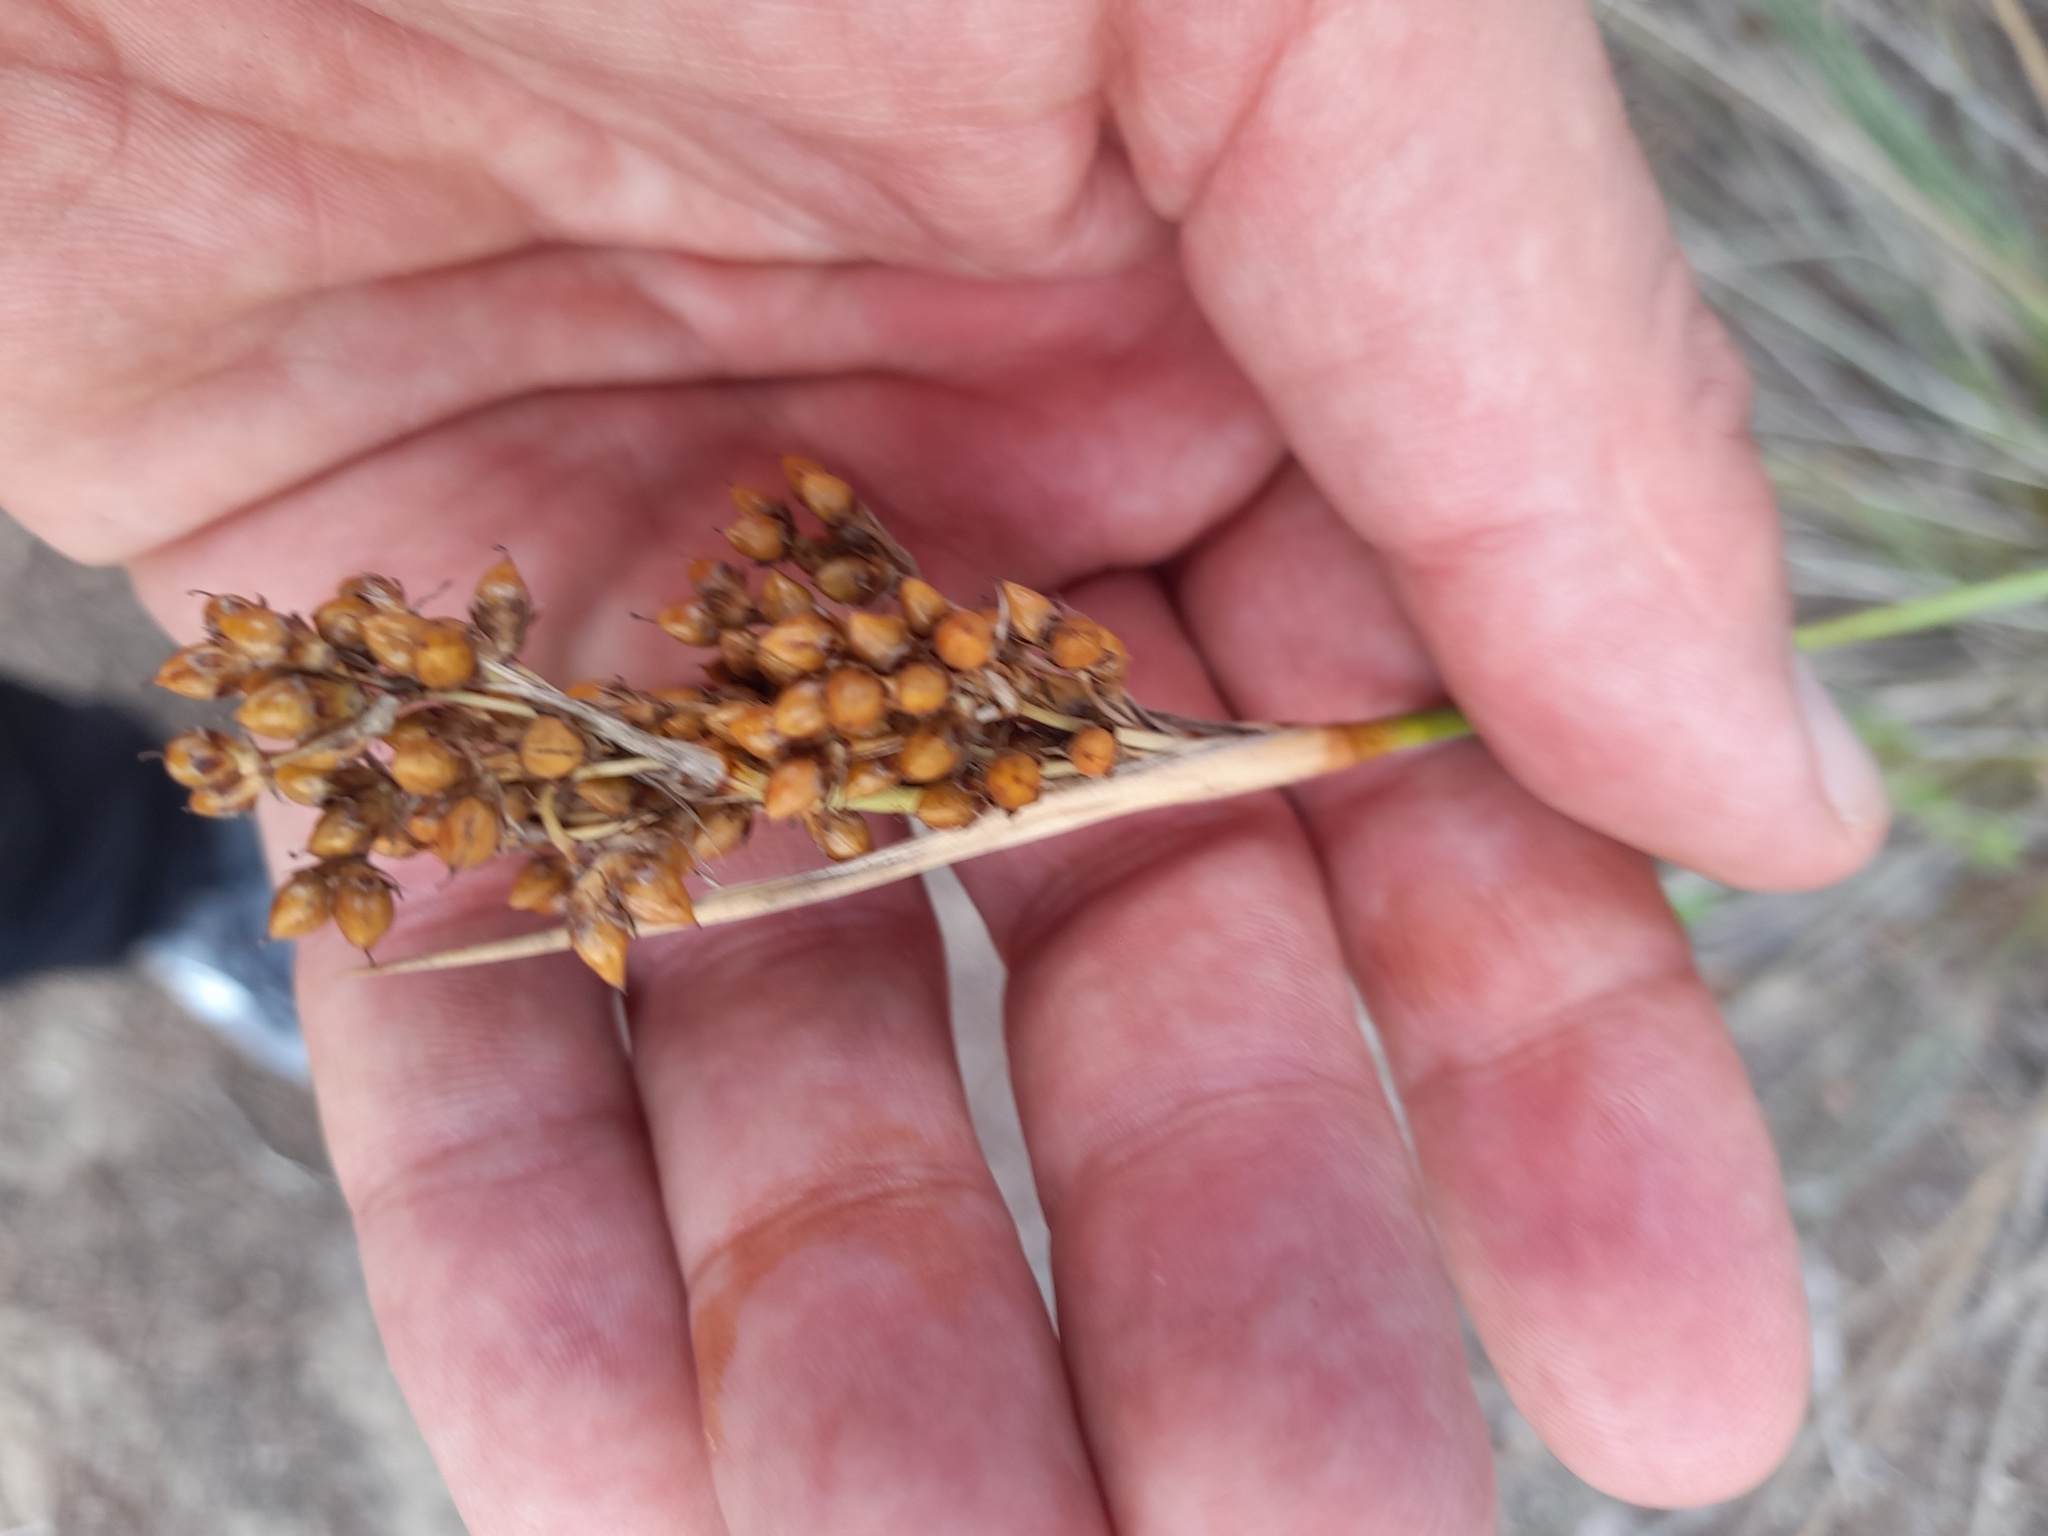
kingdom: Plantae
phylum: Tracheophyta
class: Liliopsida
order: Poales
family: Juncaceae
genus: Juncus
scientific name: Juncus acutus
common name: Sharp rush
